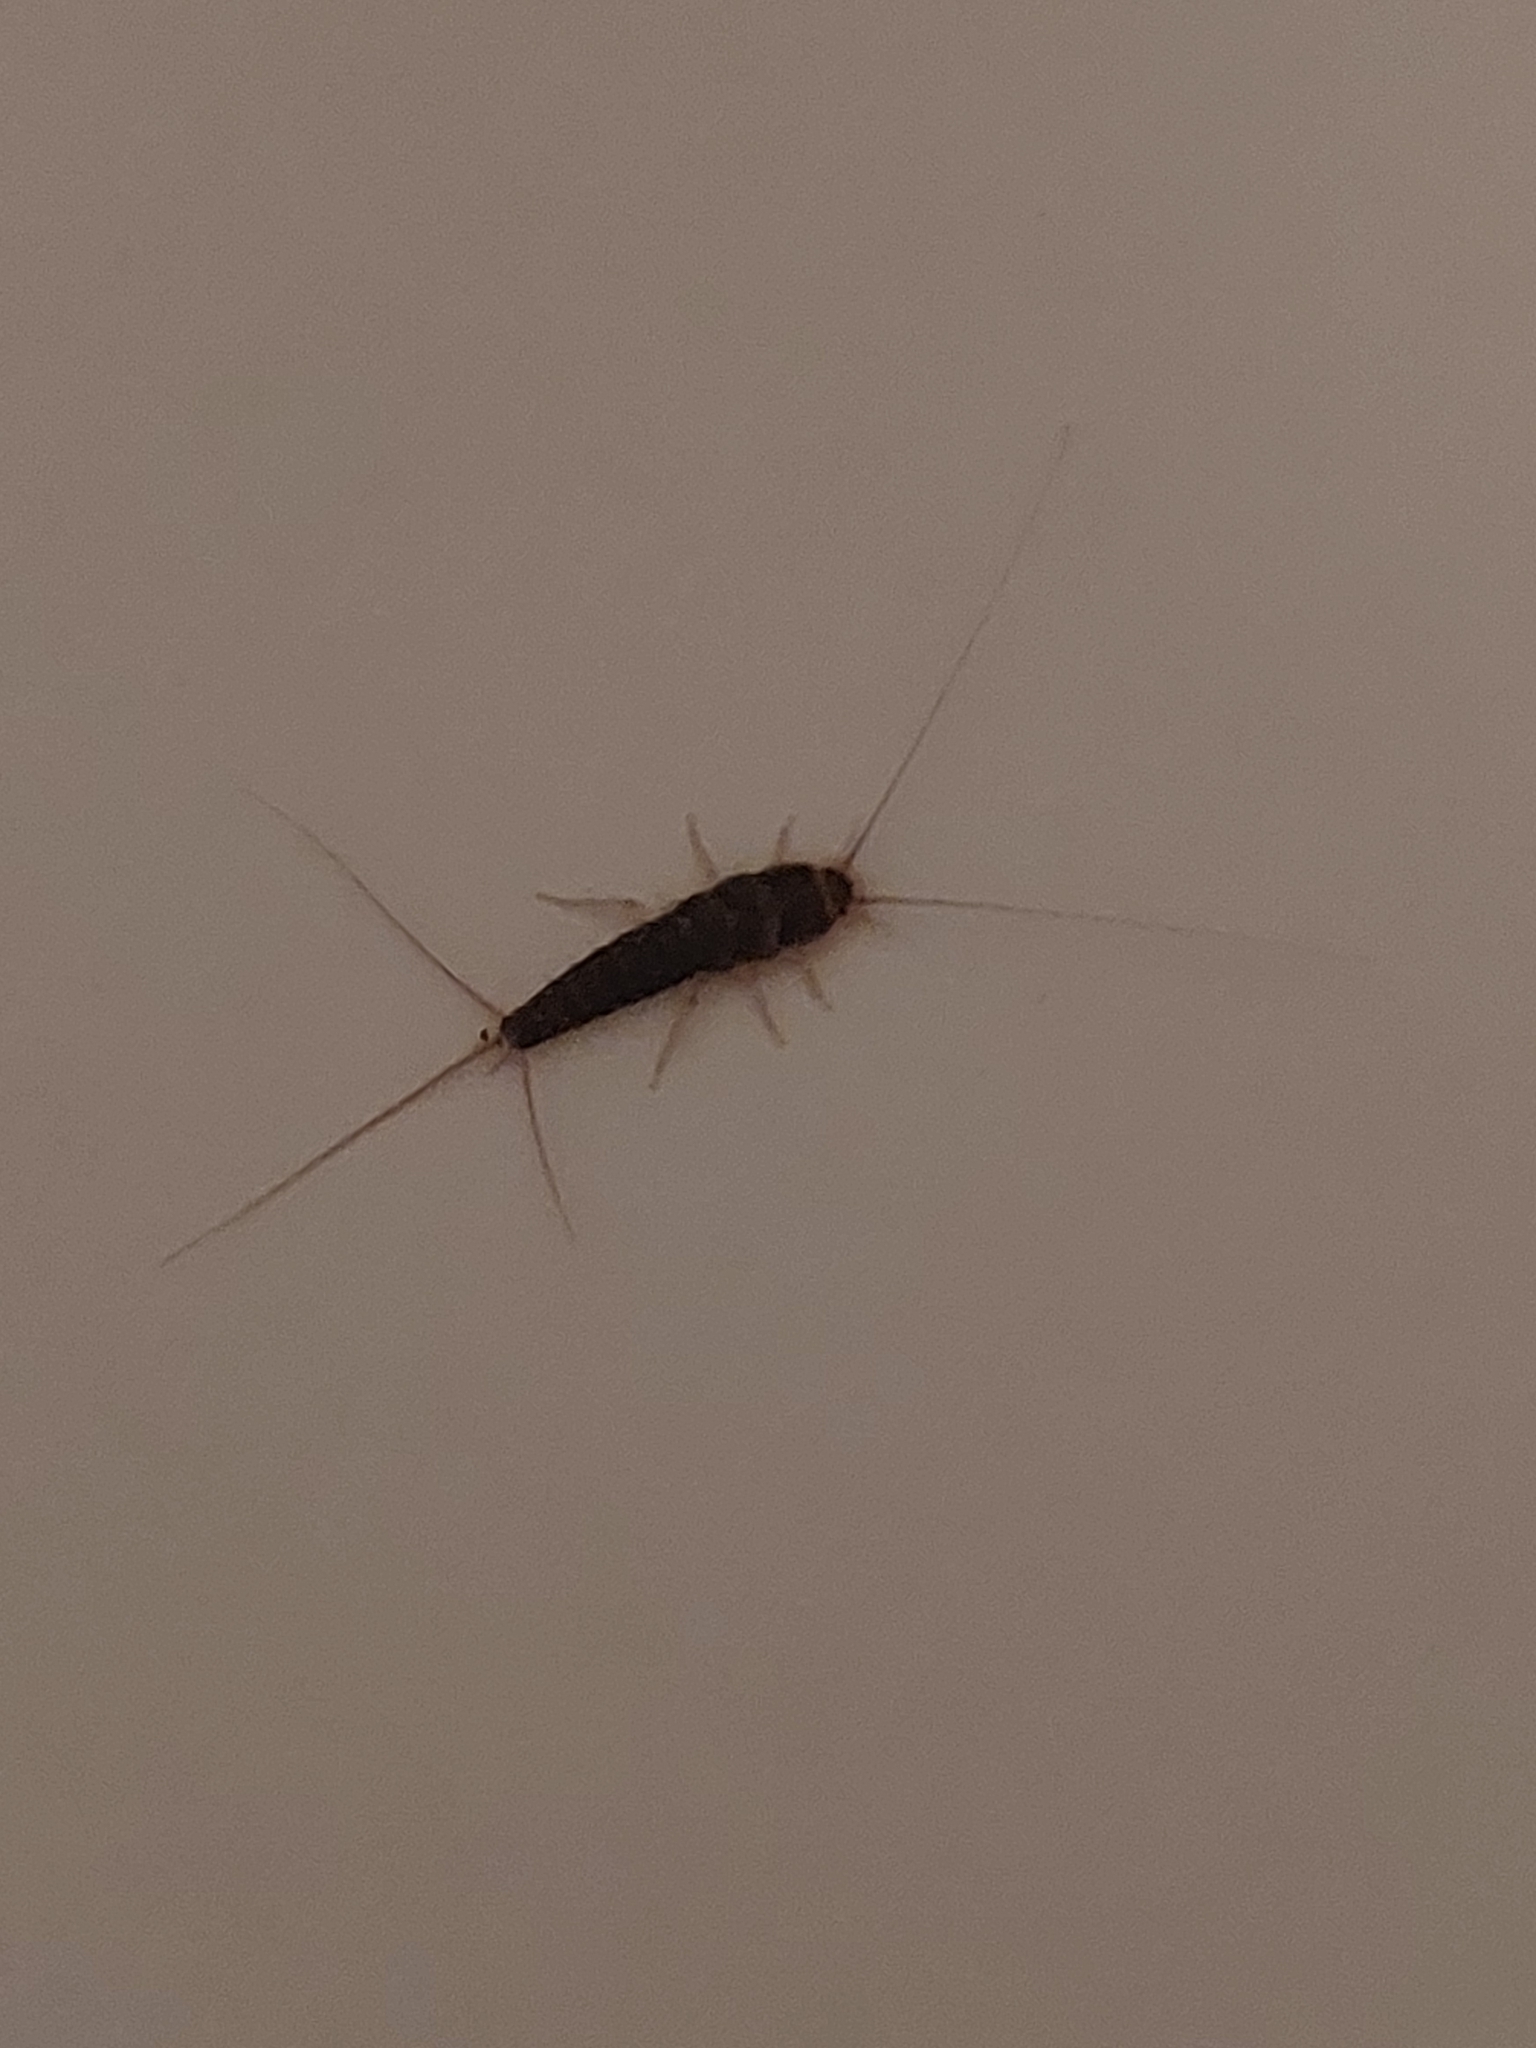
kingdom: Animalia
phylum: Arthropoda
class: Insecta
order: Zygentoma
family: Lepismatidae
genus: Ctenolepisma
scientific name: Ctenolepisma longicaudatum
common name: Silverfish
